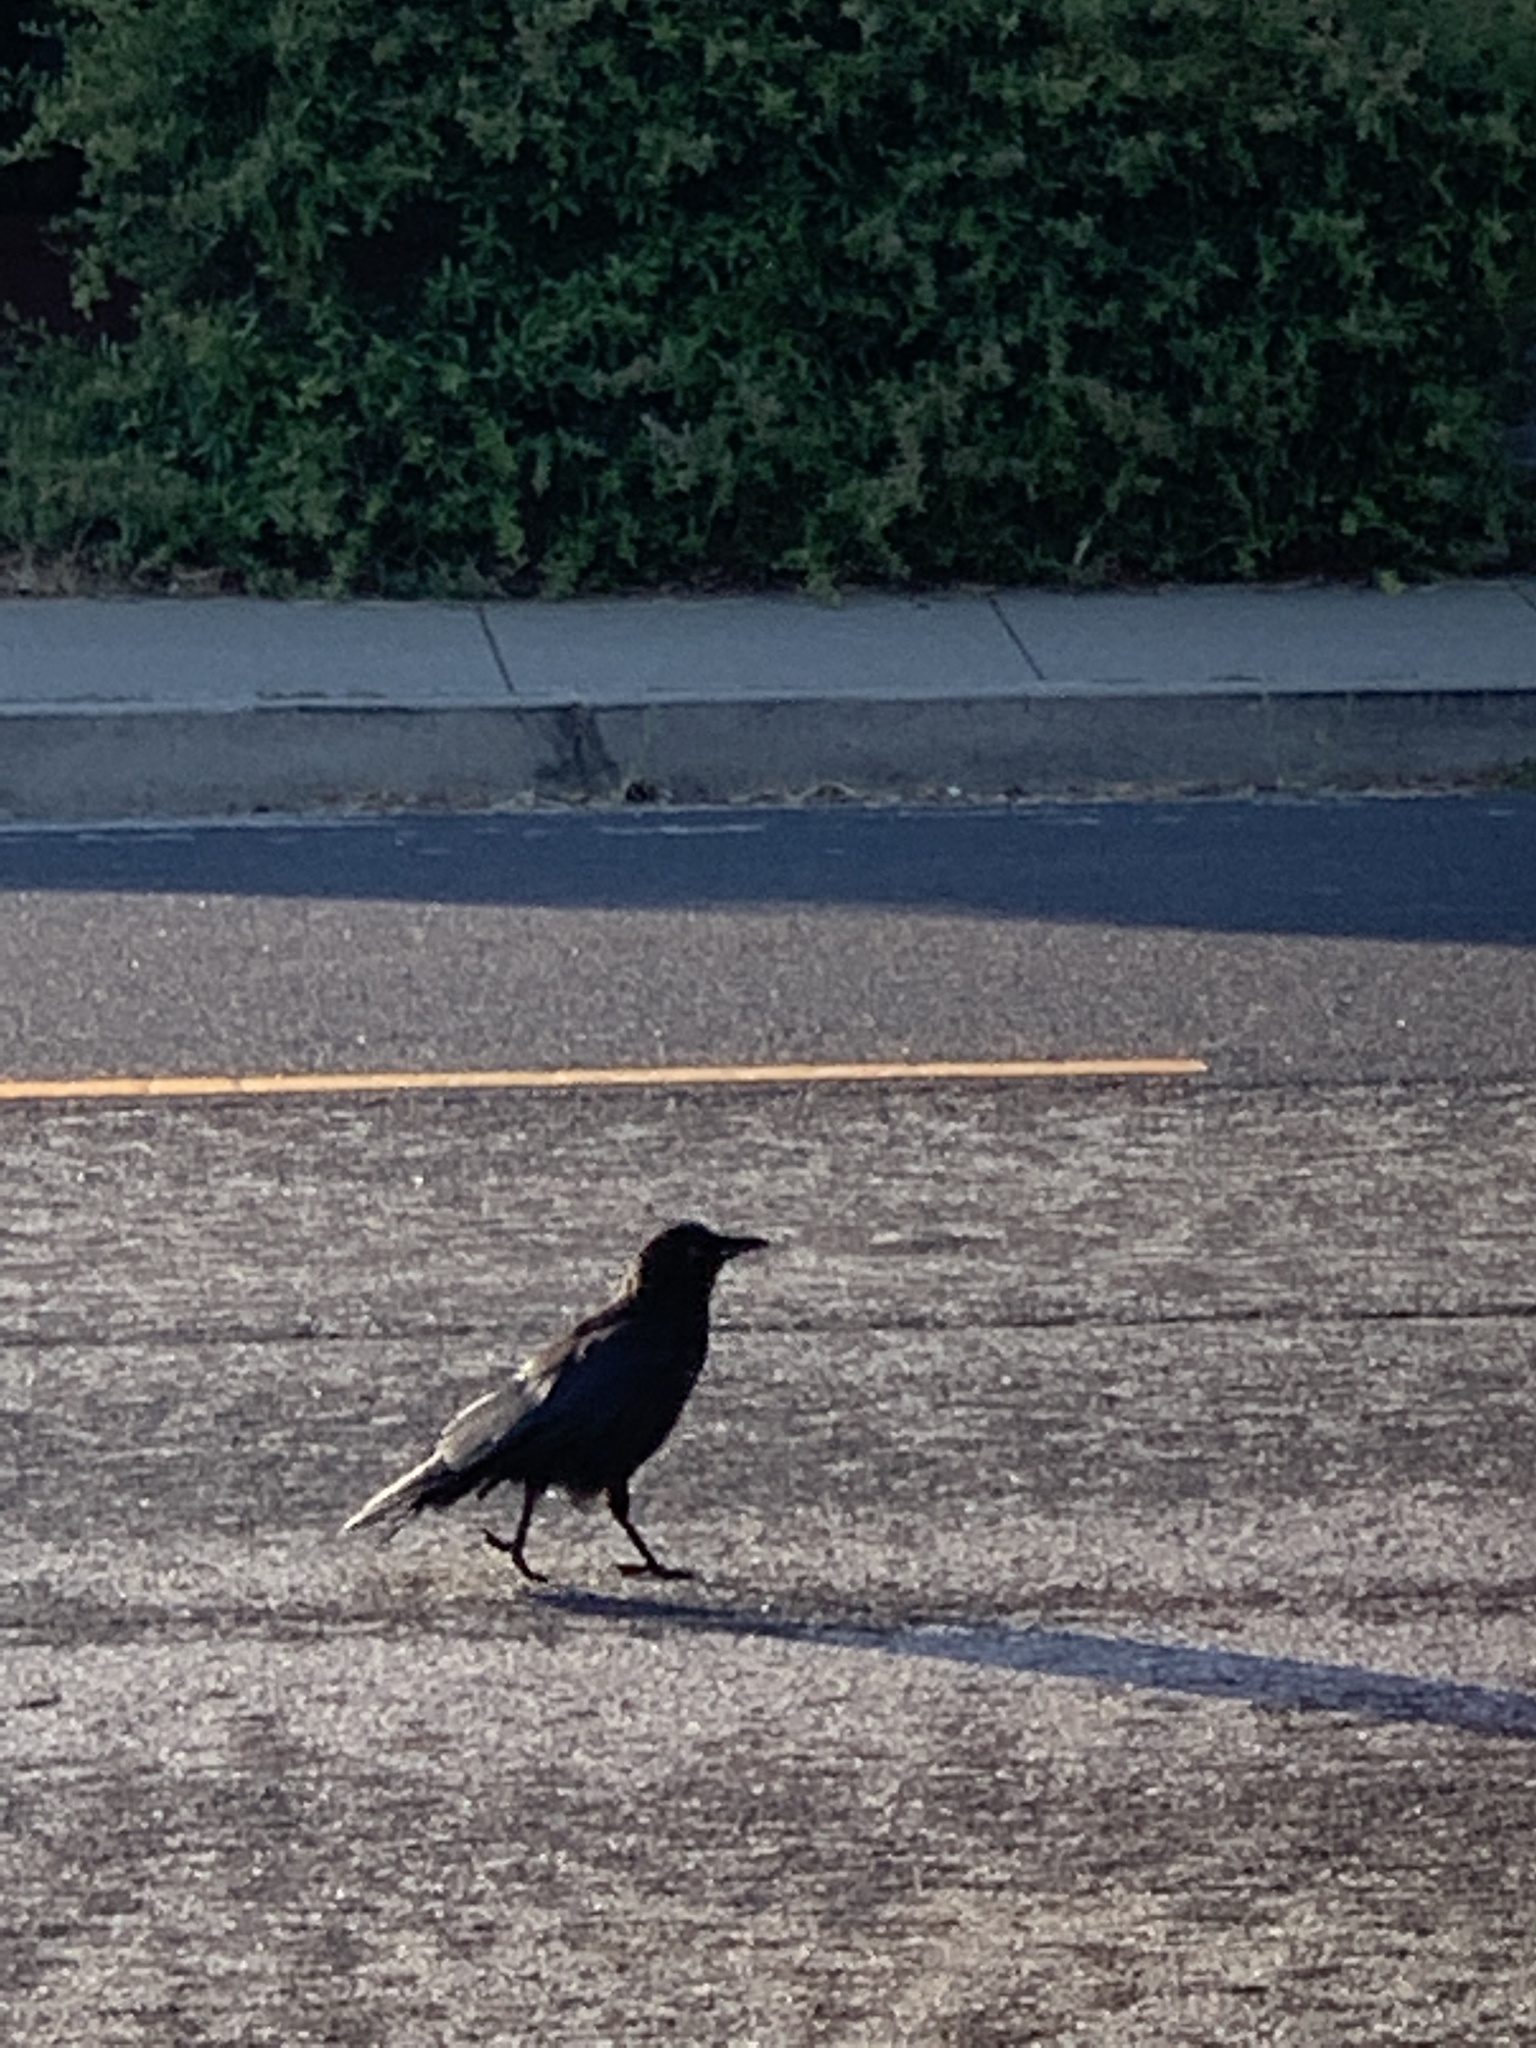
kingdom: Animalia
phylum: Chordata
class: Aves
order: Passeriformes
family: Corvidae
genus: Corvus
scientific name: Corvus brachyrhynchos
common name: American crow
